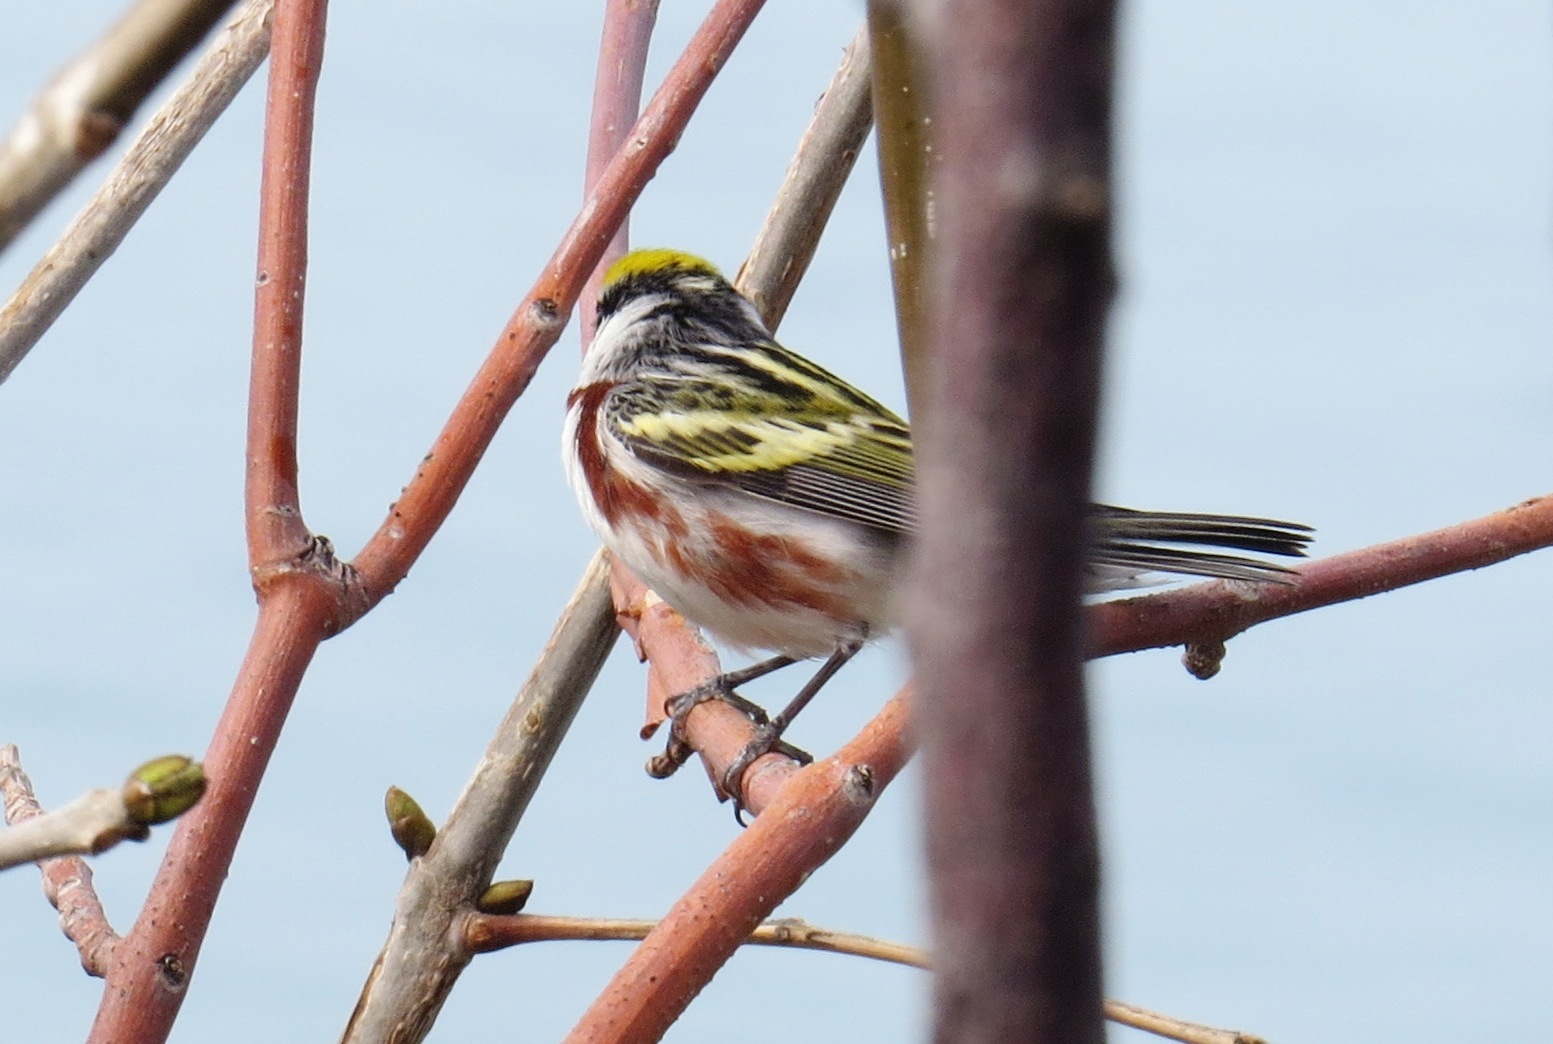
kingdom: Animalia
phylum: Chordata
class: Aves
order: Passeriformes
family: Parulidae
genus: Setophaga
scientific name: Setophaga pensylvanica
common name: Chestnut-sided warbler
